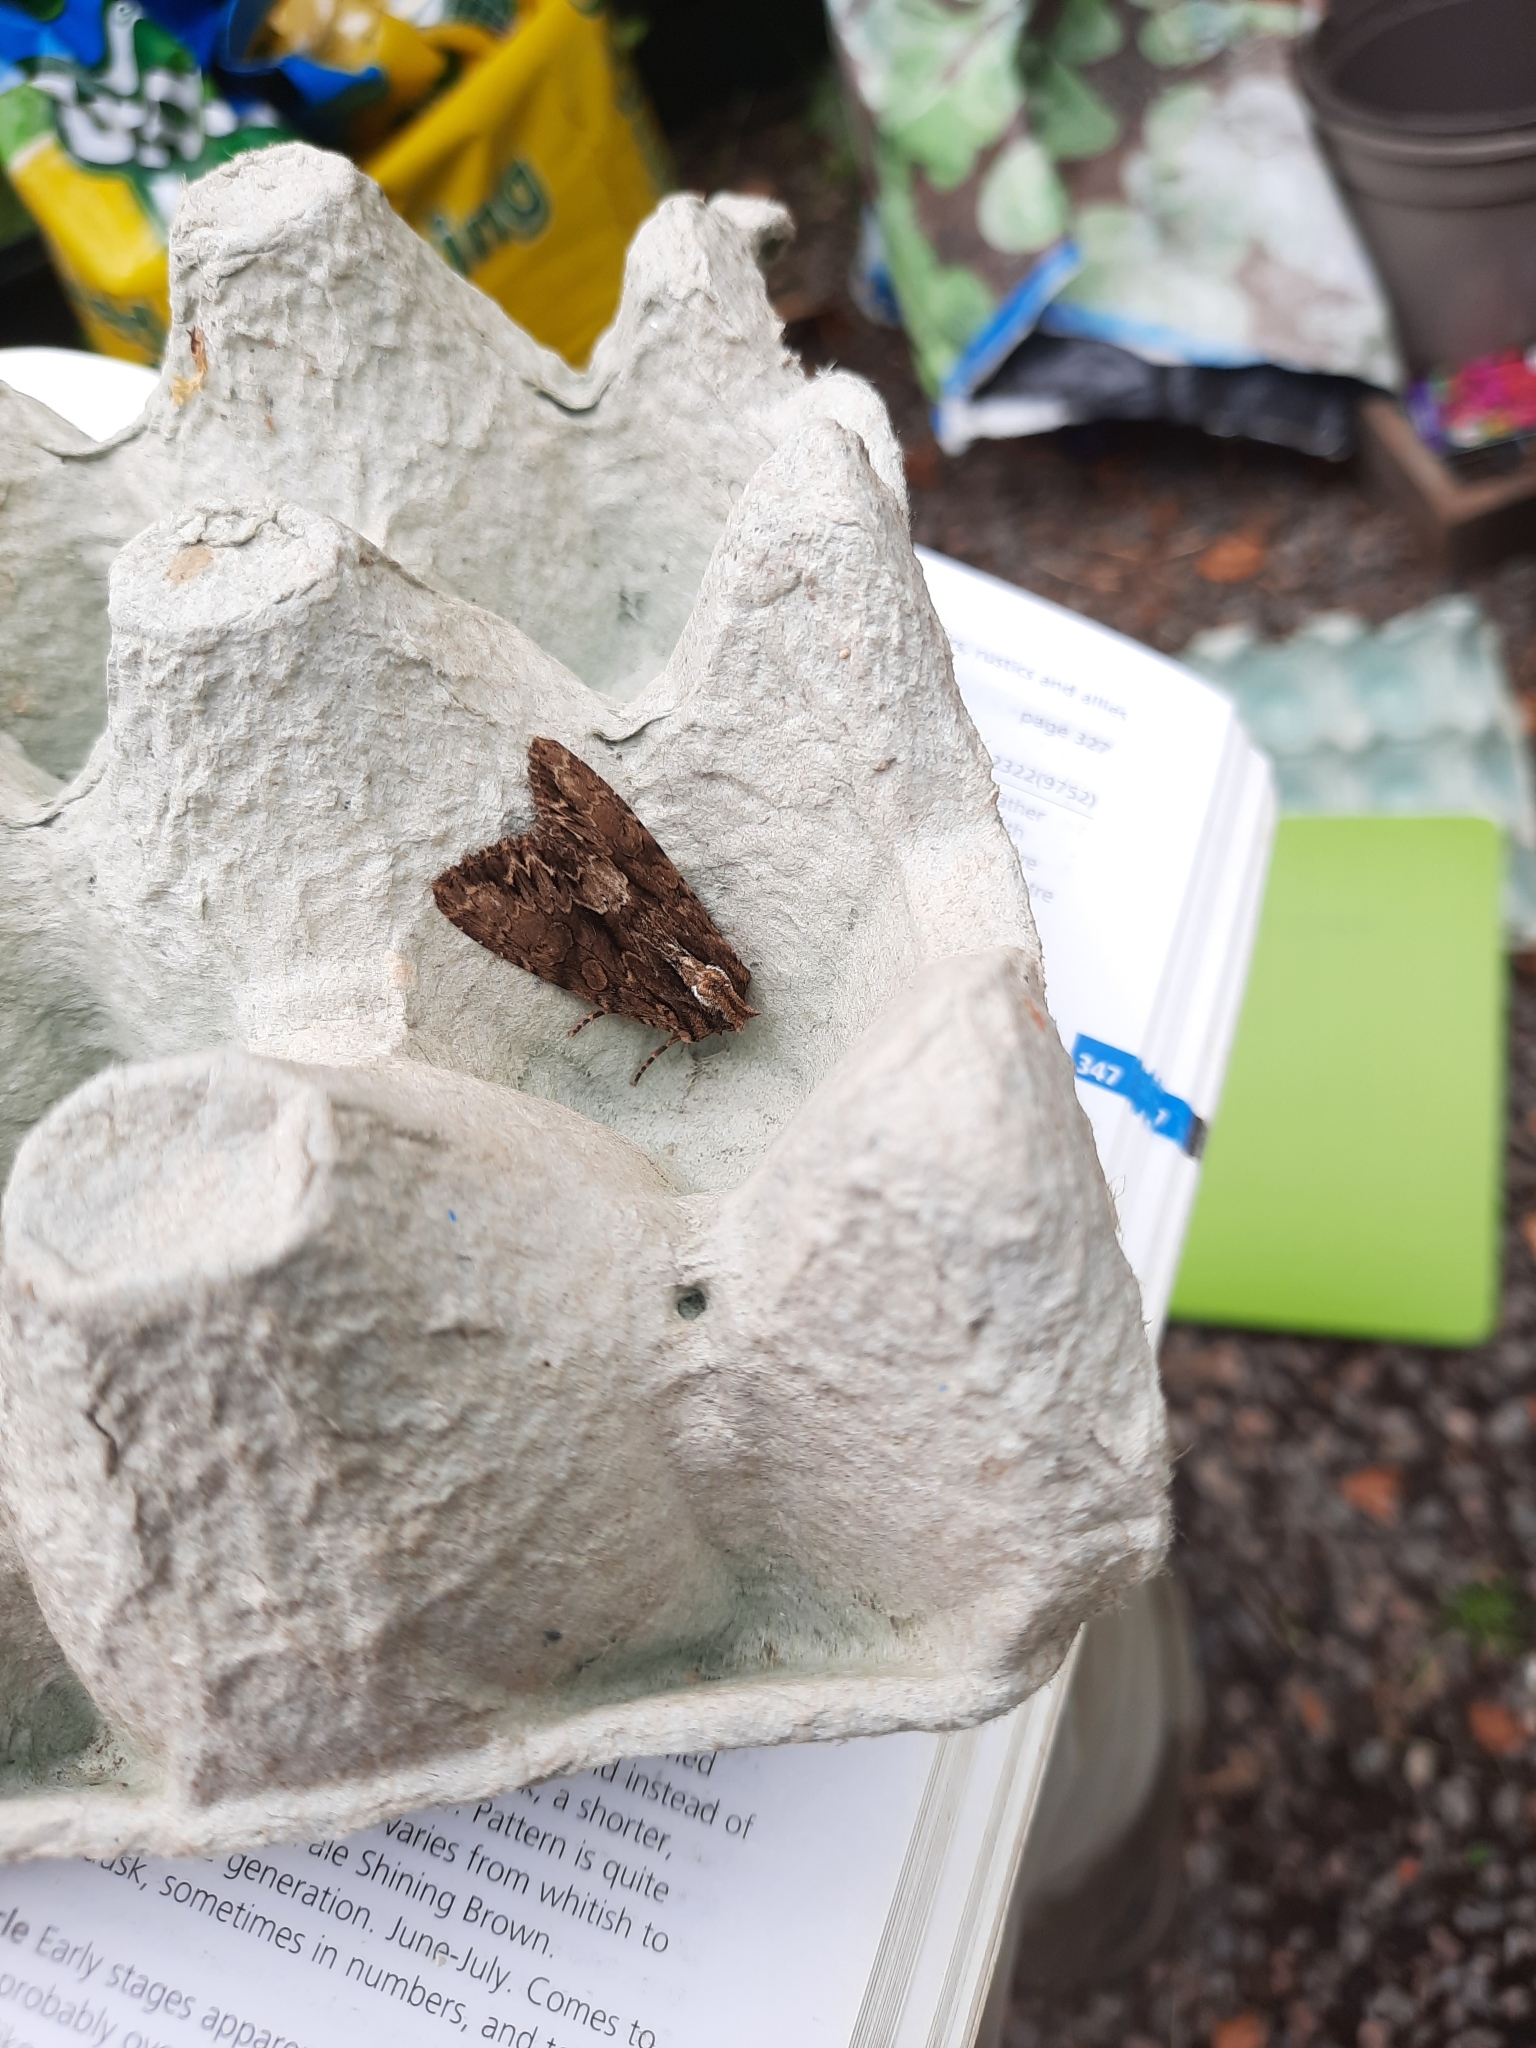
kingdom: Animalia
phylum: Arthropoda
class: Insecta
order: Lepidoptera
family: Noctuidae
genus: Apamea
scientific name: Apamea monoglypha
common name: Dark arches
